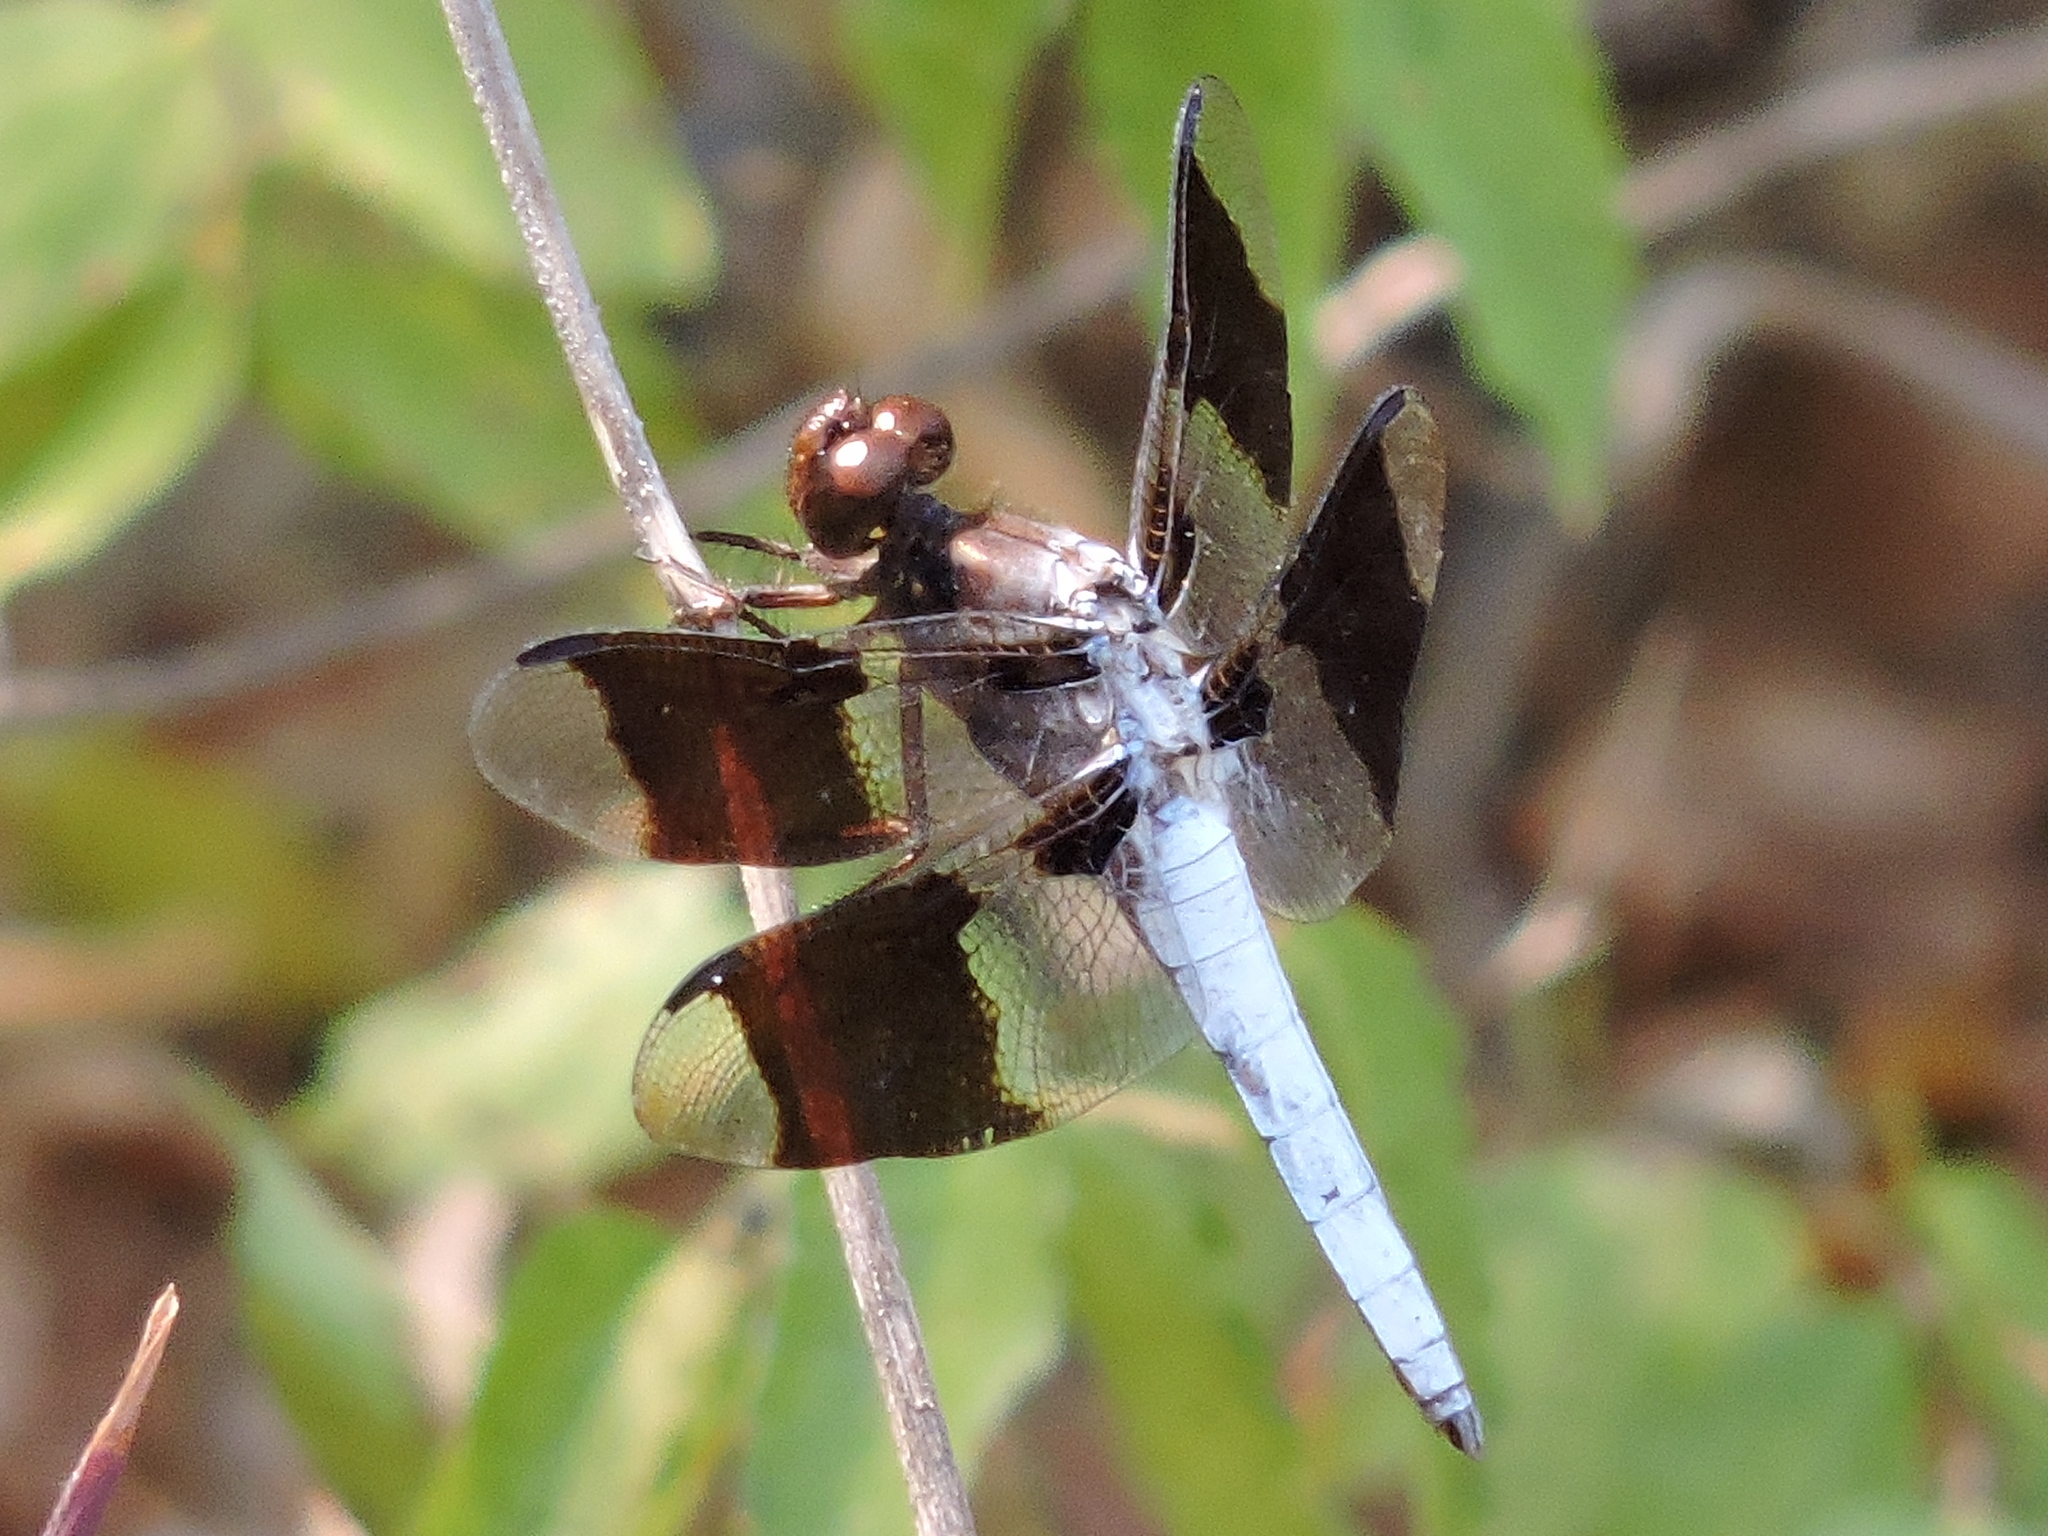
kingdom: Animalia
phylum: Arthropoda
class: Insecta
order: Odonata
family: Libellulidae
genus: Plathemis
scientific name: Plathemis lydia
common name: Common whitetail
